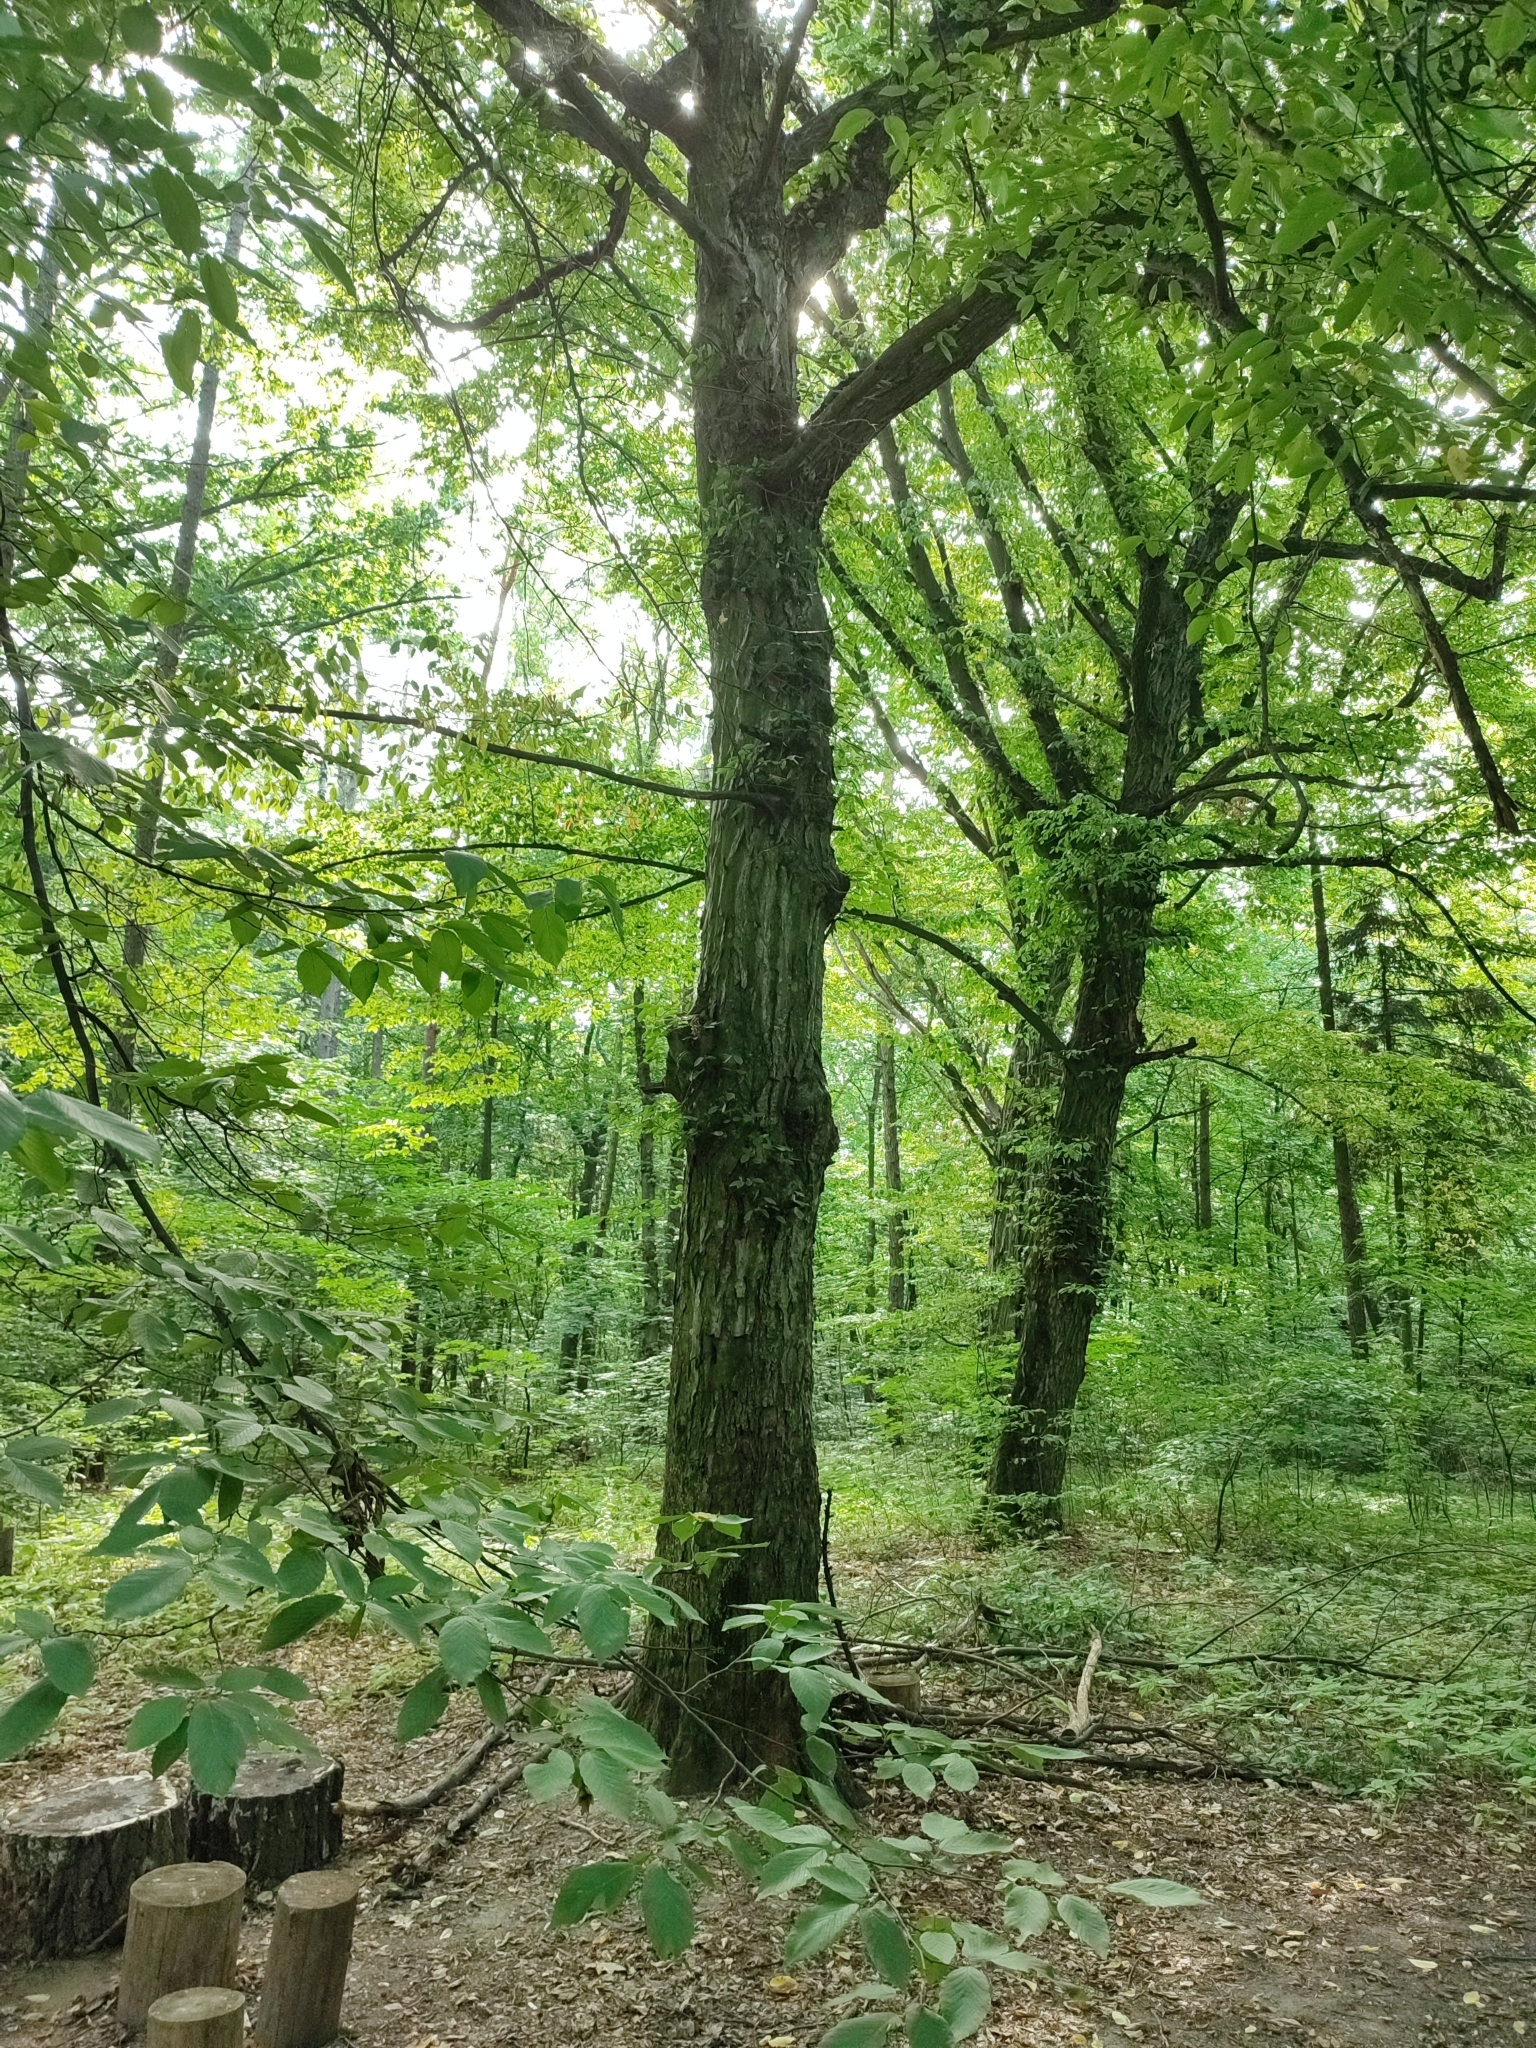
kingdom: Plantae
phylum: Tracheophyta
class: Magnoliopsida
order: Fagales
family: Betulaceae
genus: Carpinus
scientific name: Carpinus betulus
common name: Hornbeam
